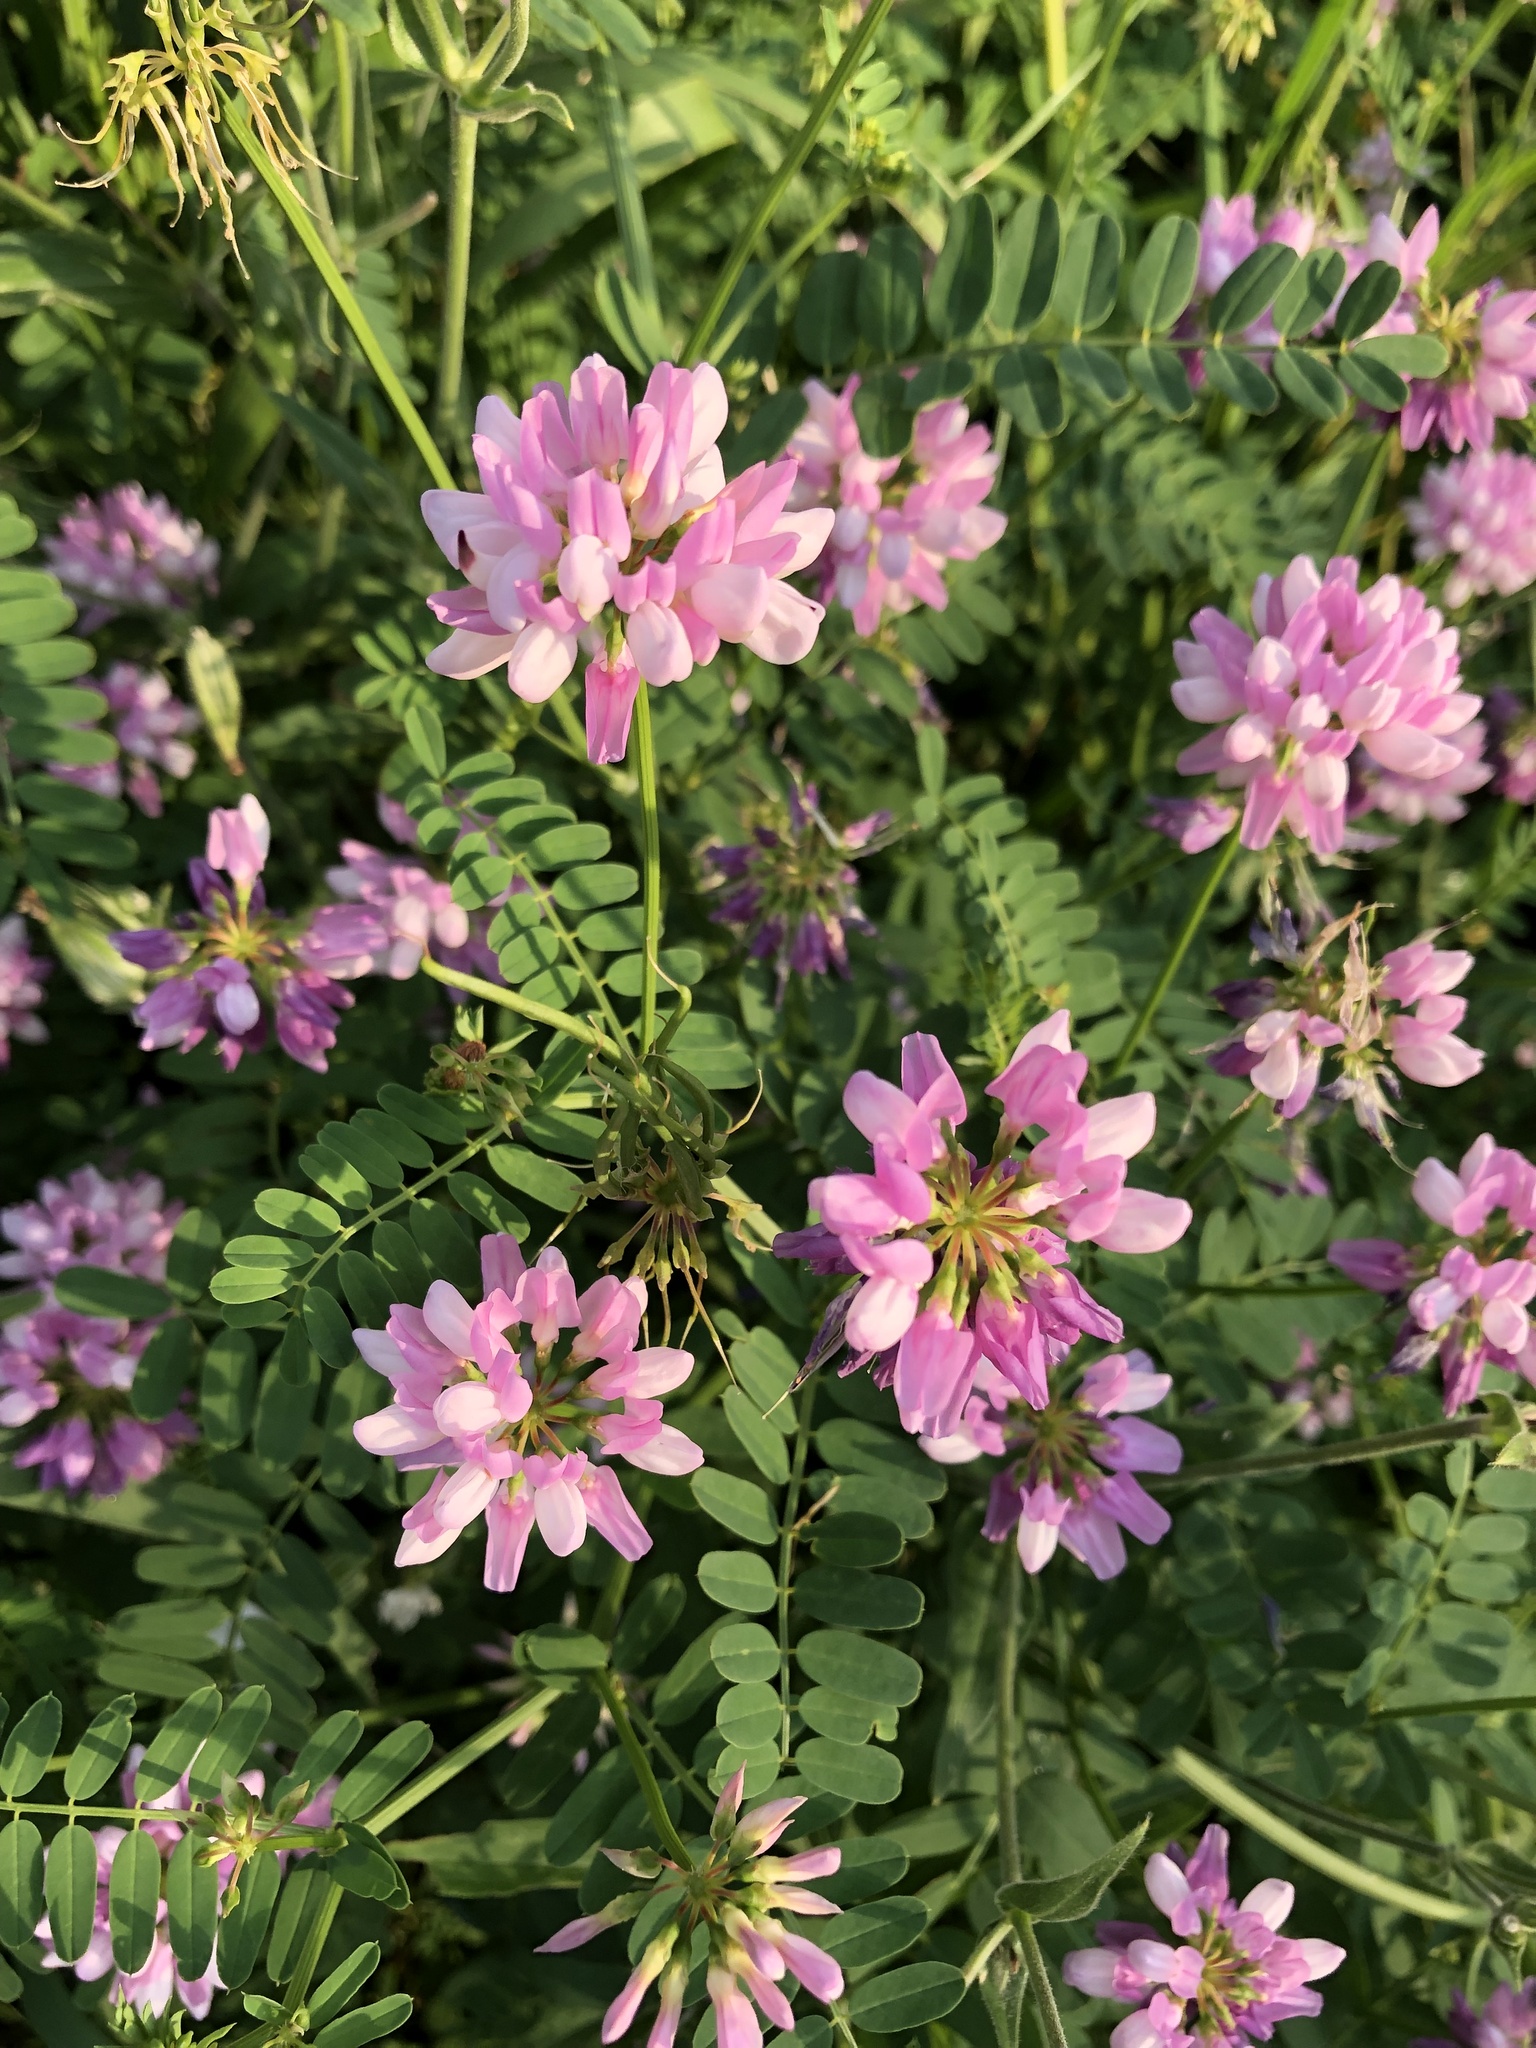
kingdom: Plantae
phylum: Tracheophyta
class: Magnoliopsida
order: Fabales
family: Fabaceae
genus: Coronilla
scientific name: Coronilla varia
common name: Crownvetch
